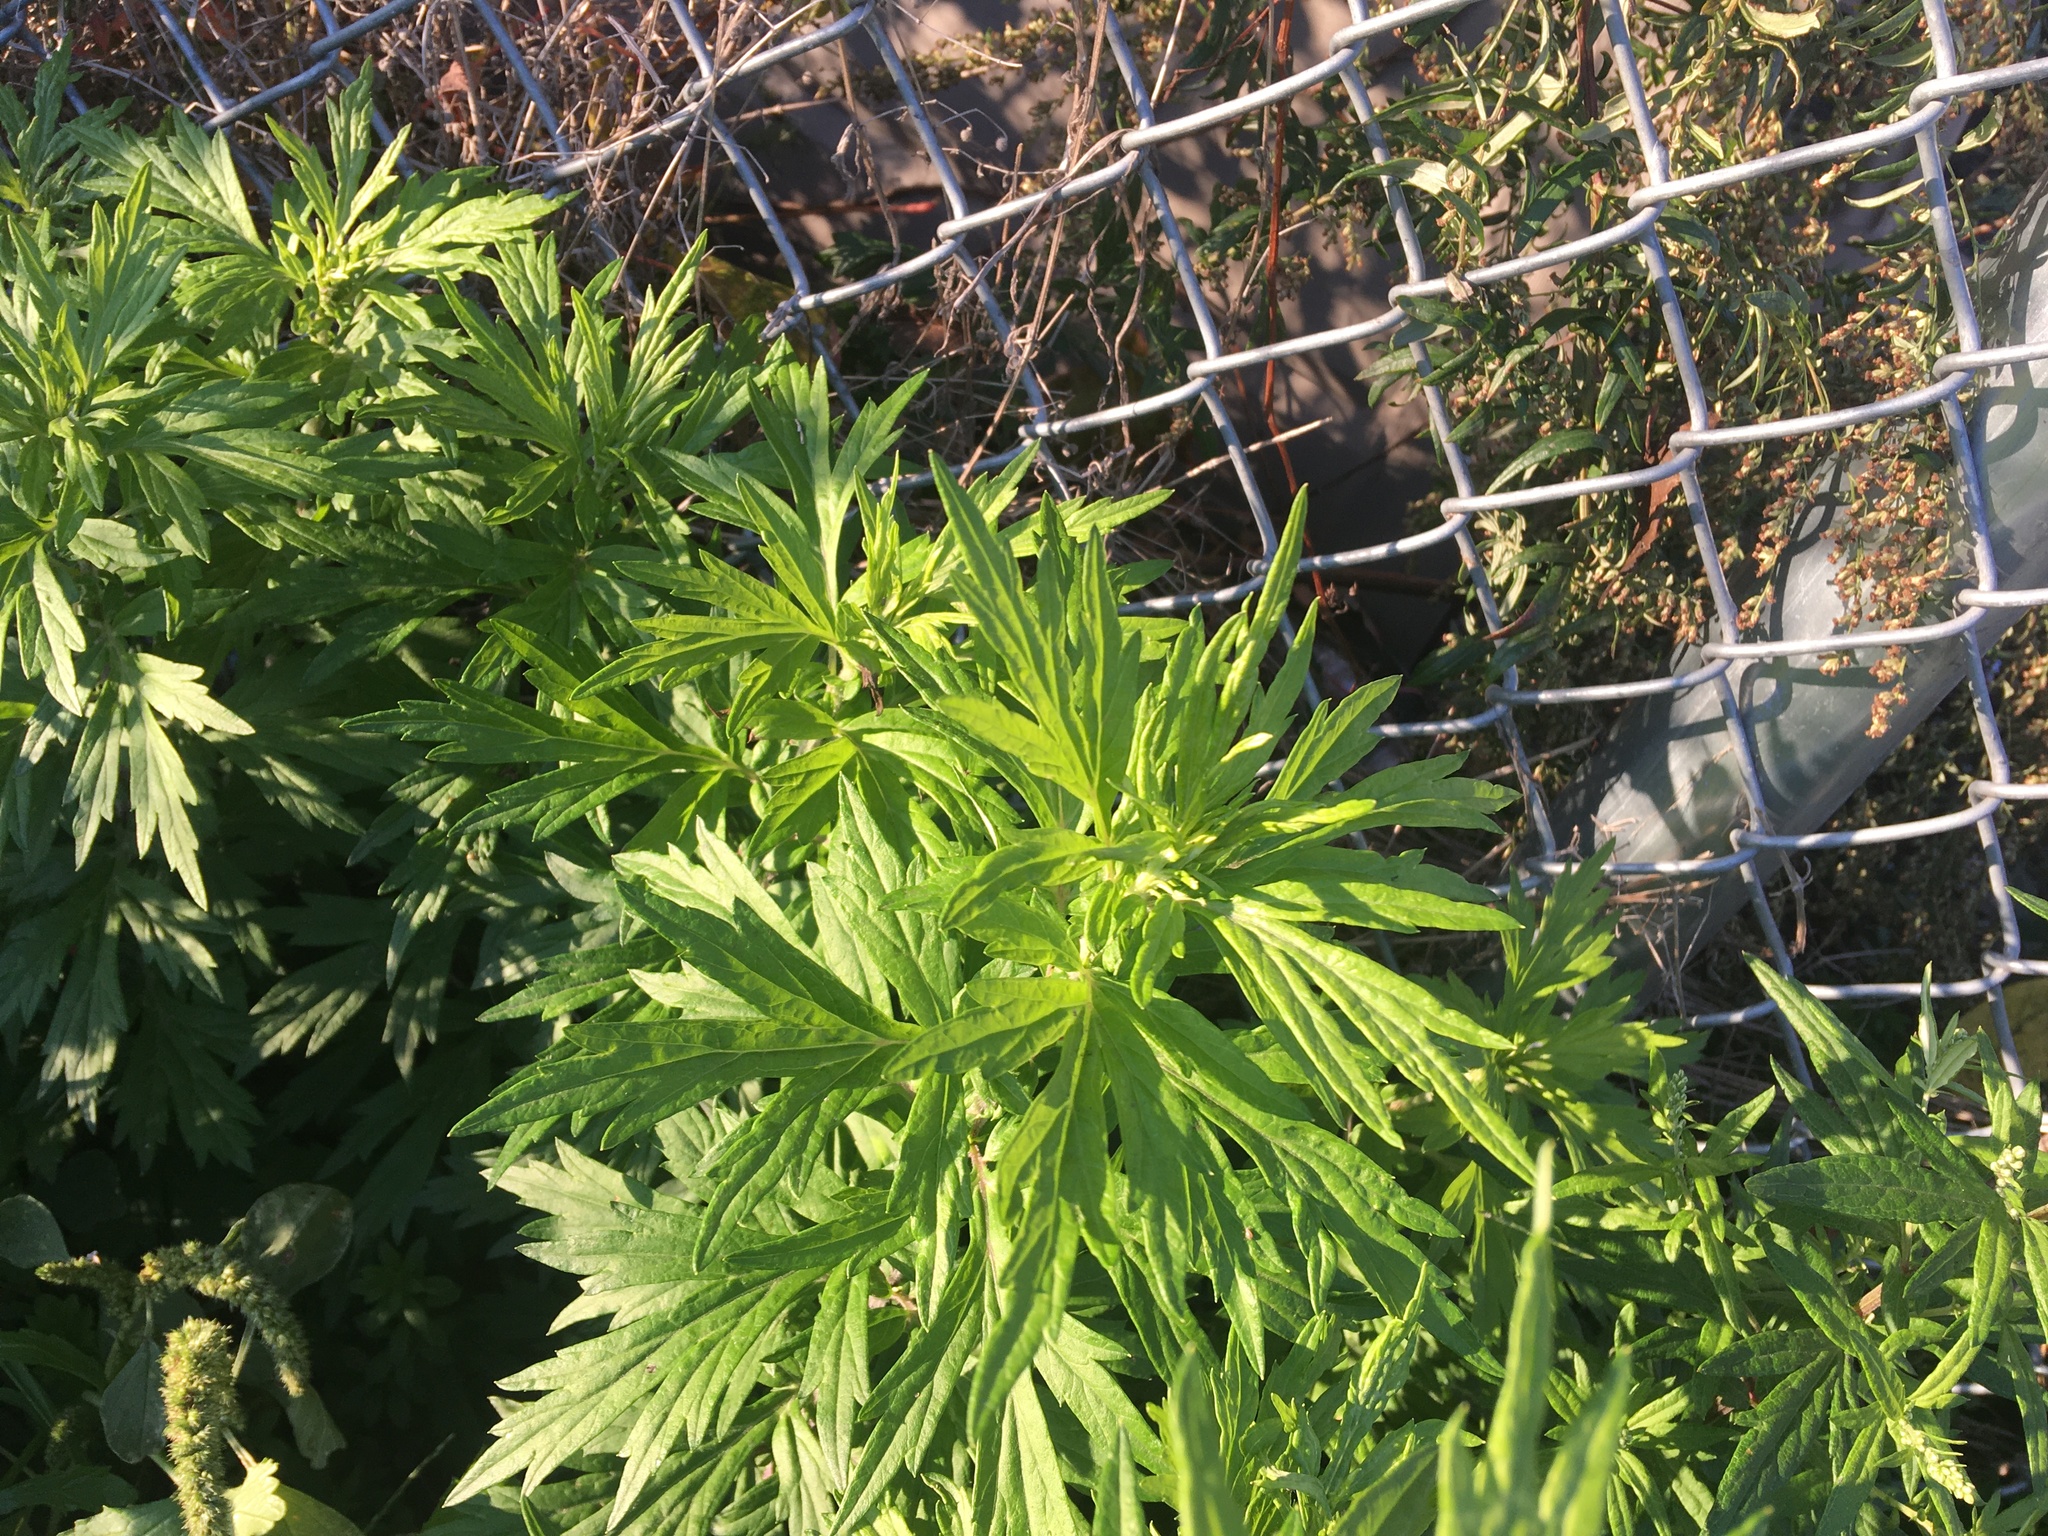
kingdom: Plantae
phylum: Tracheophyta
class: Magnoliopsida
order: Asterales
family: Asteraceae
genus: Artemisia
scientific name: Artemisia vulgaris
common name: Mugwort
